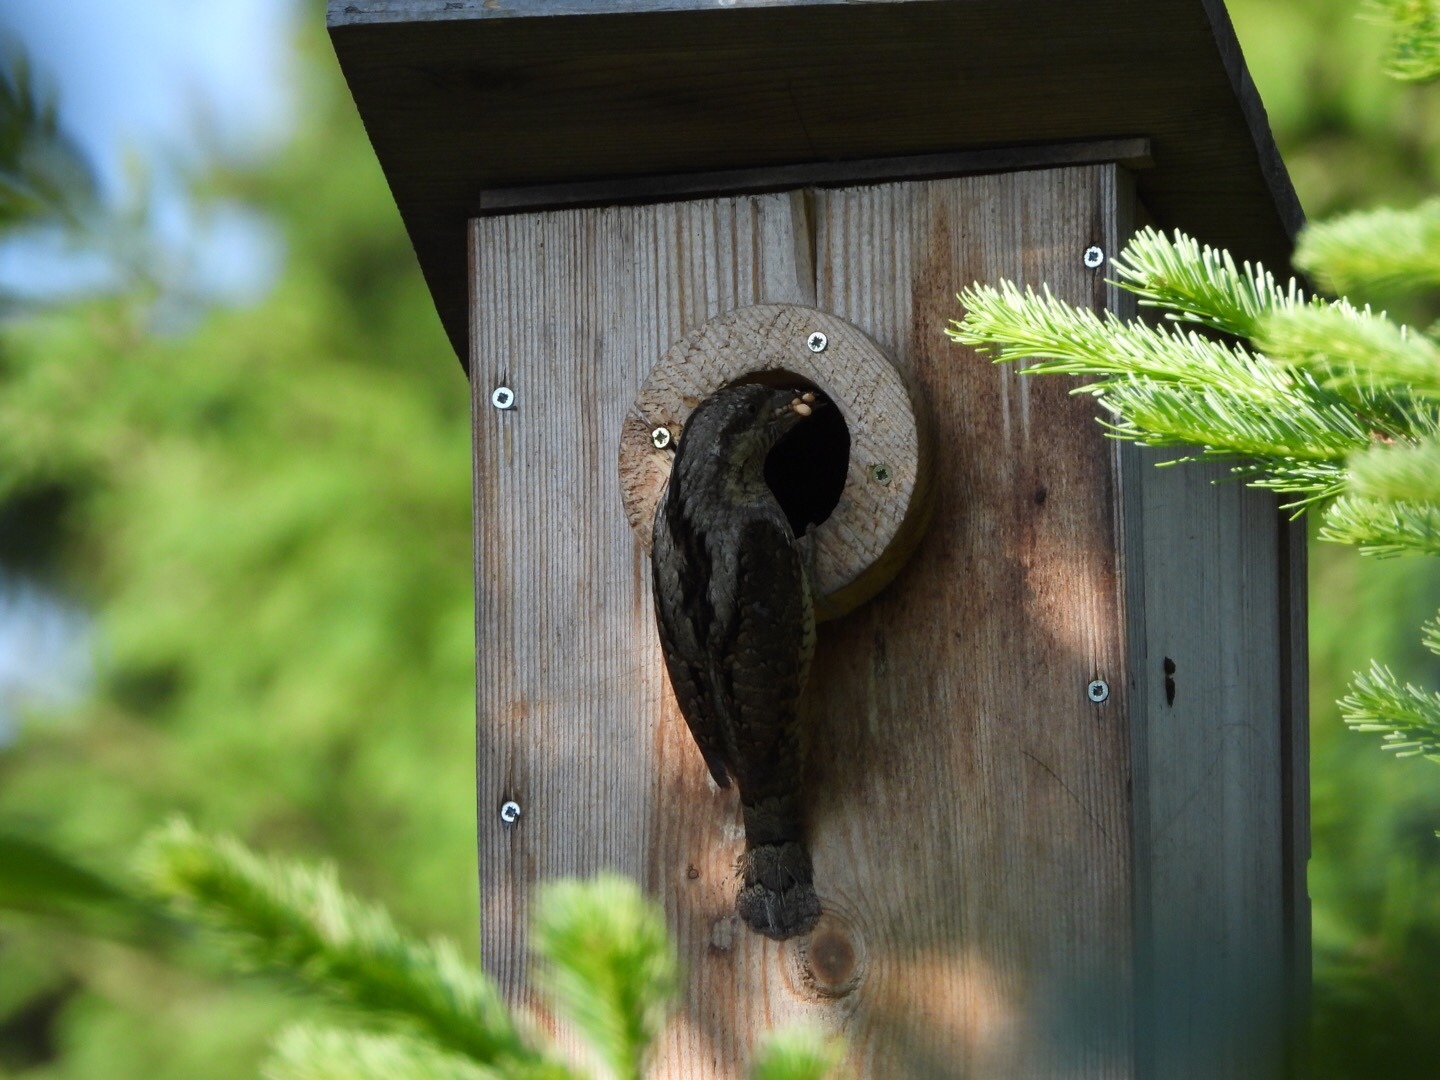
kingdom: Animalia
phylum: Chordata
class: Aves
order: Piciformes
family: Picidae
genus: Jynx
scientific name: Jynx torquilla
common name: Eurasian wryneck
